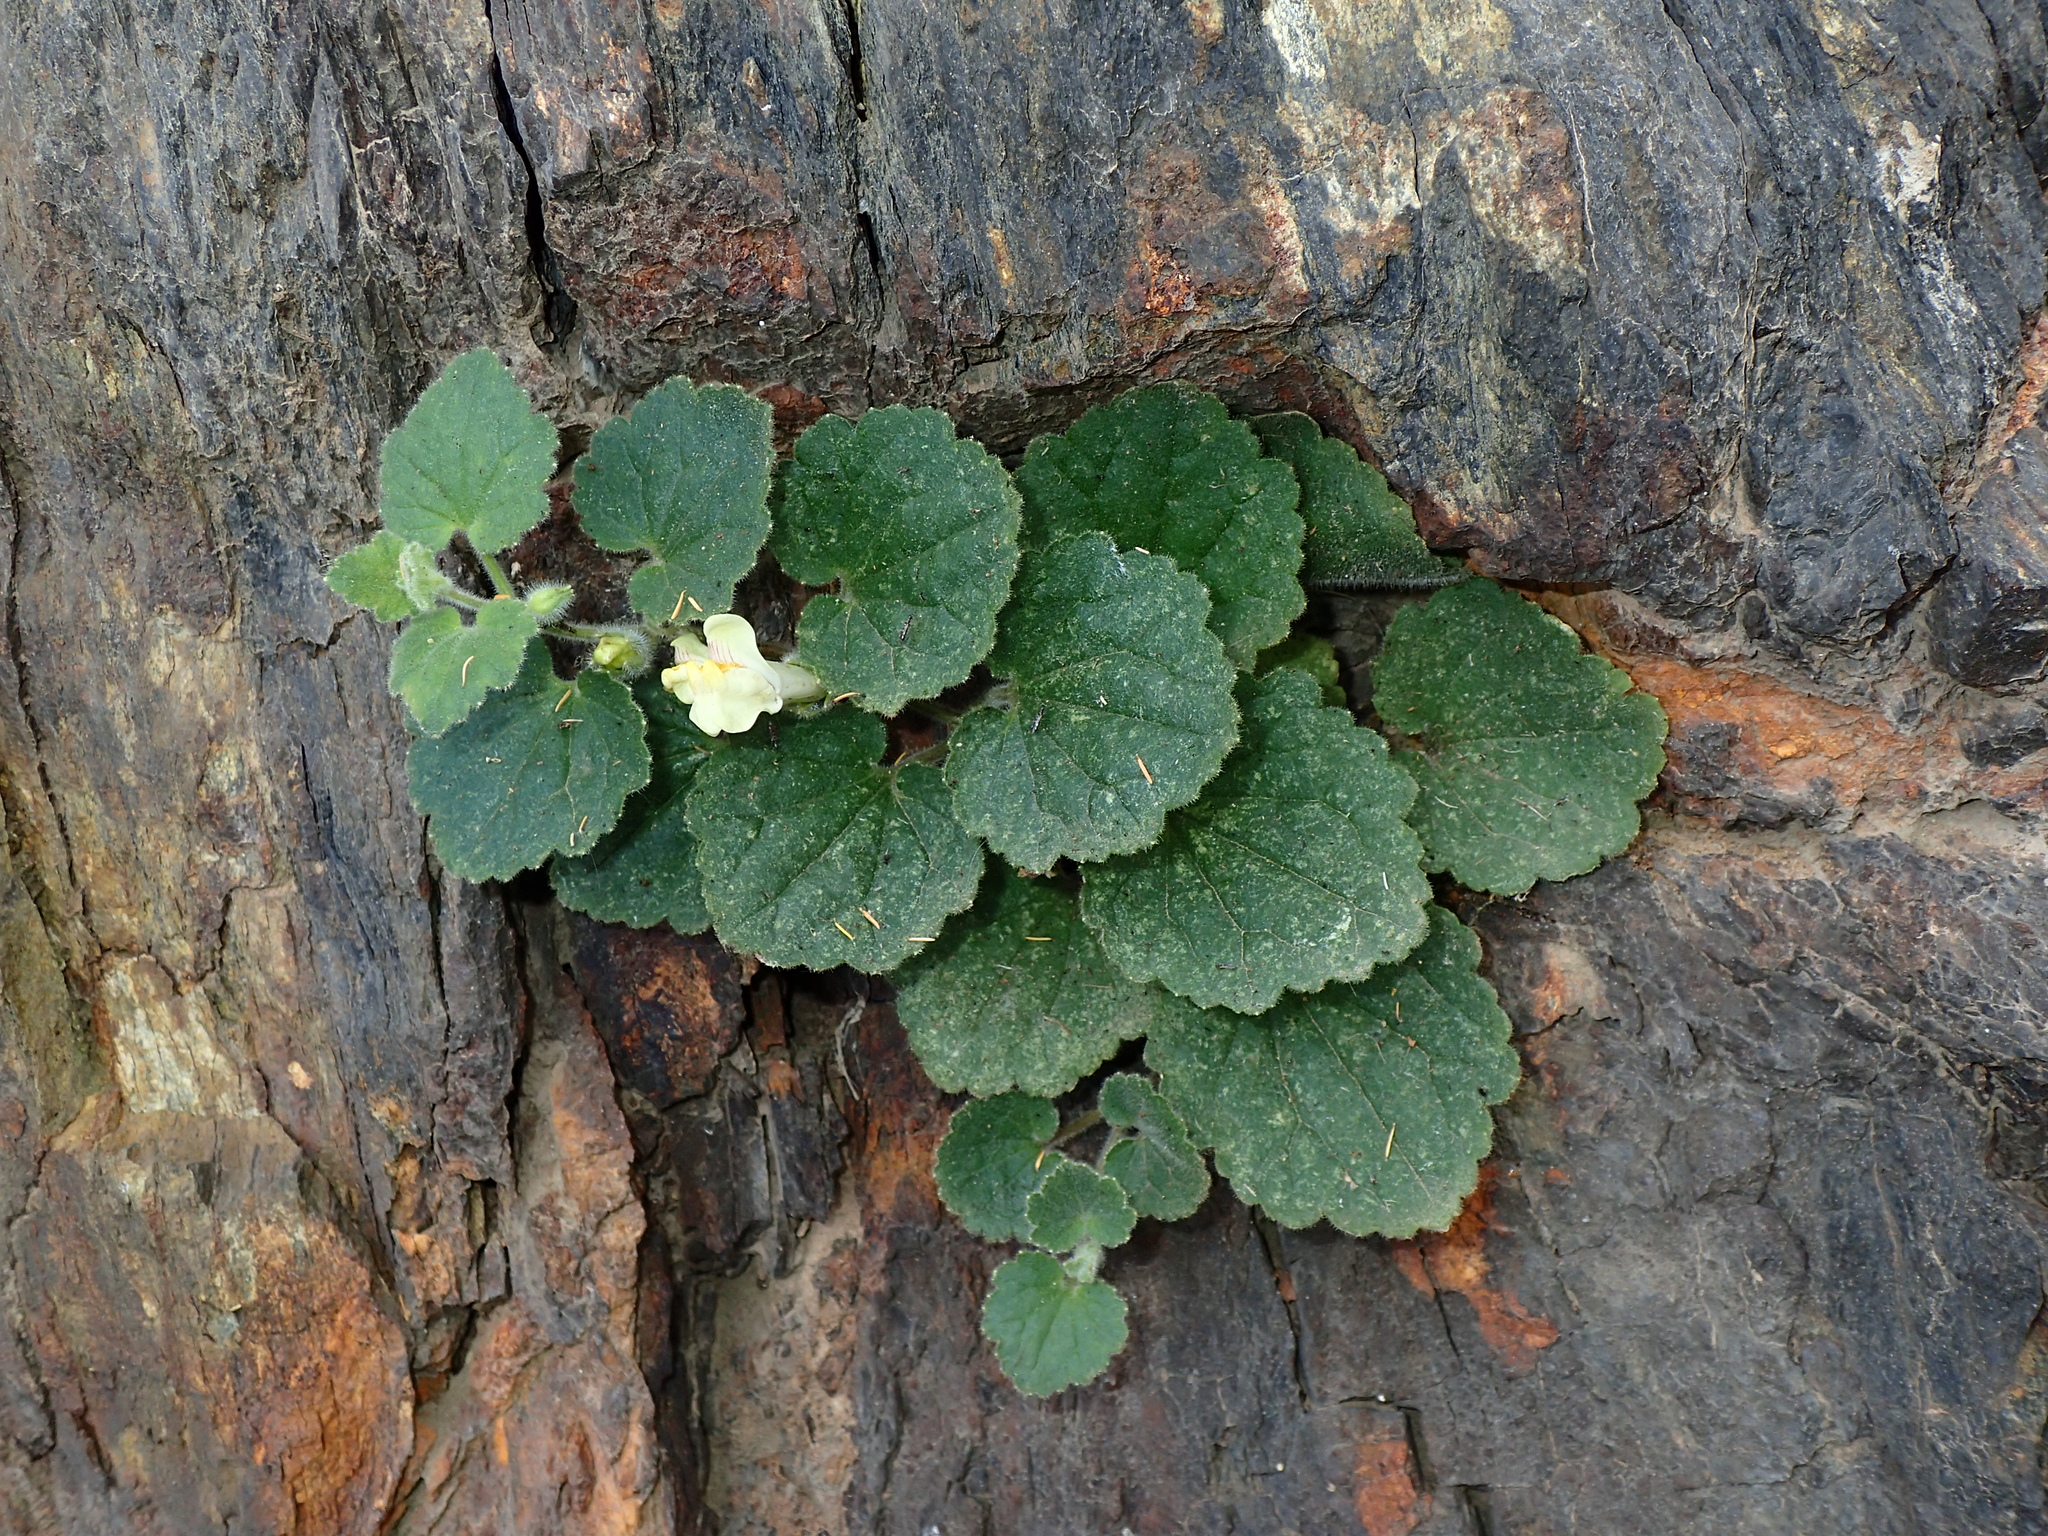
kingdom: Plantae
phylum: Tracheophyta
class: Magnoliopsida
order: Lamiales
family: Plantaginaceae
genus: Asarina
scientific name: Asarina procumbens
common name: Trailing snapdragon
